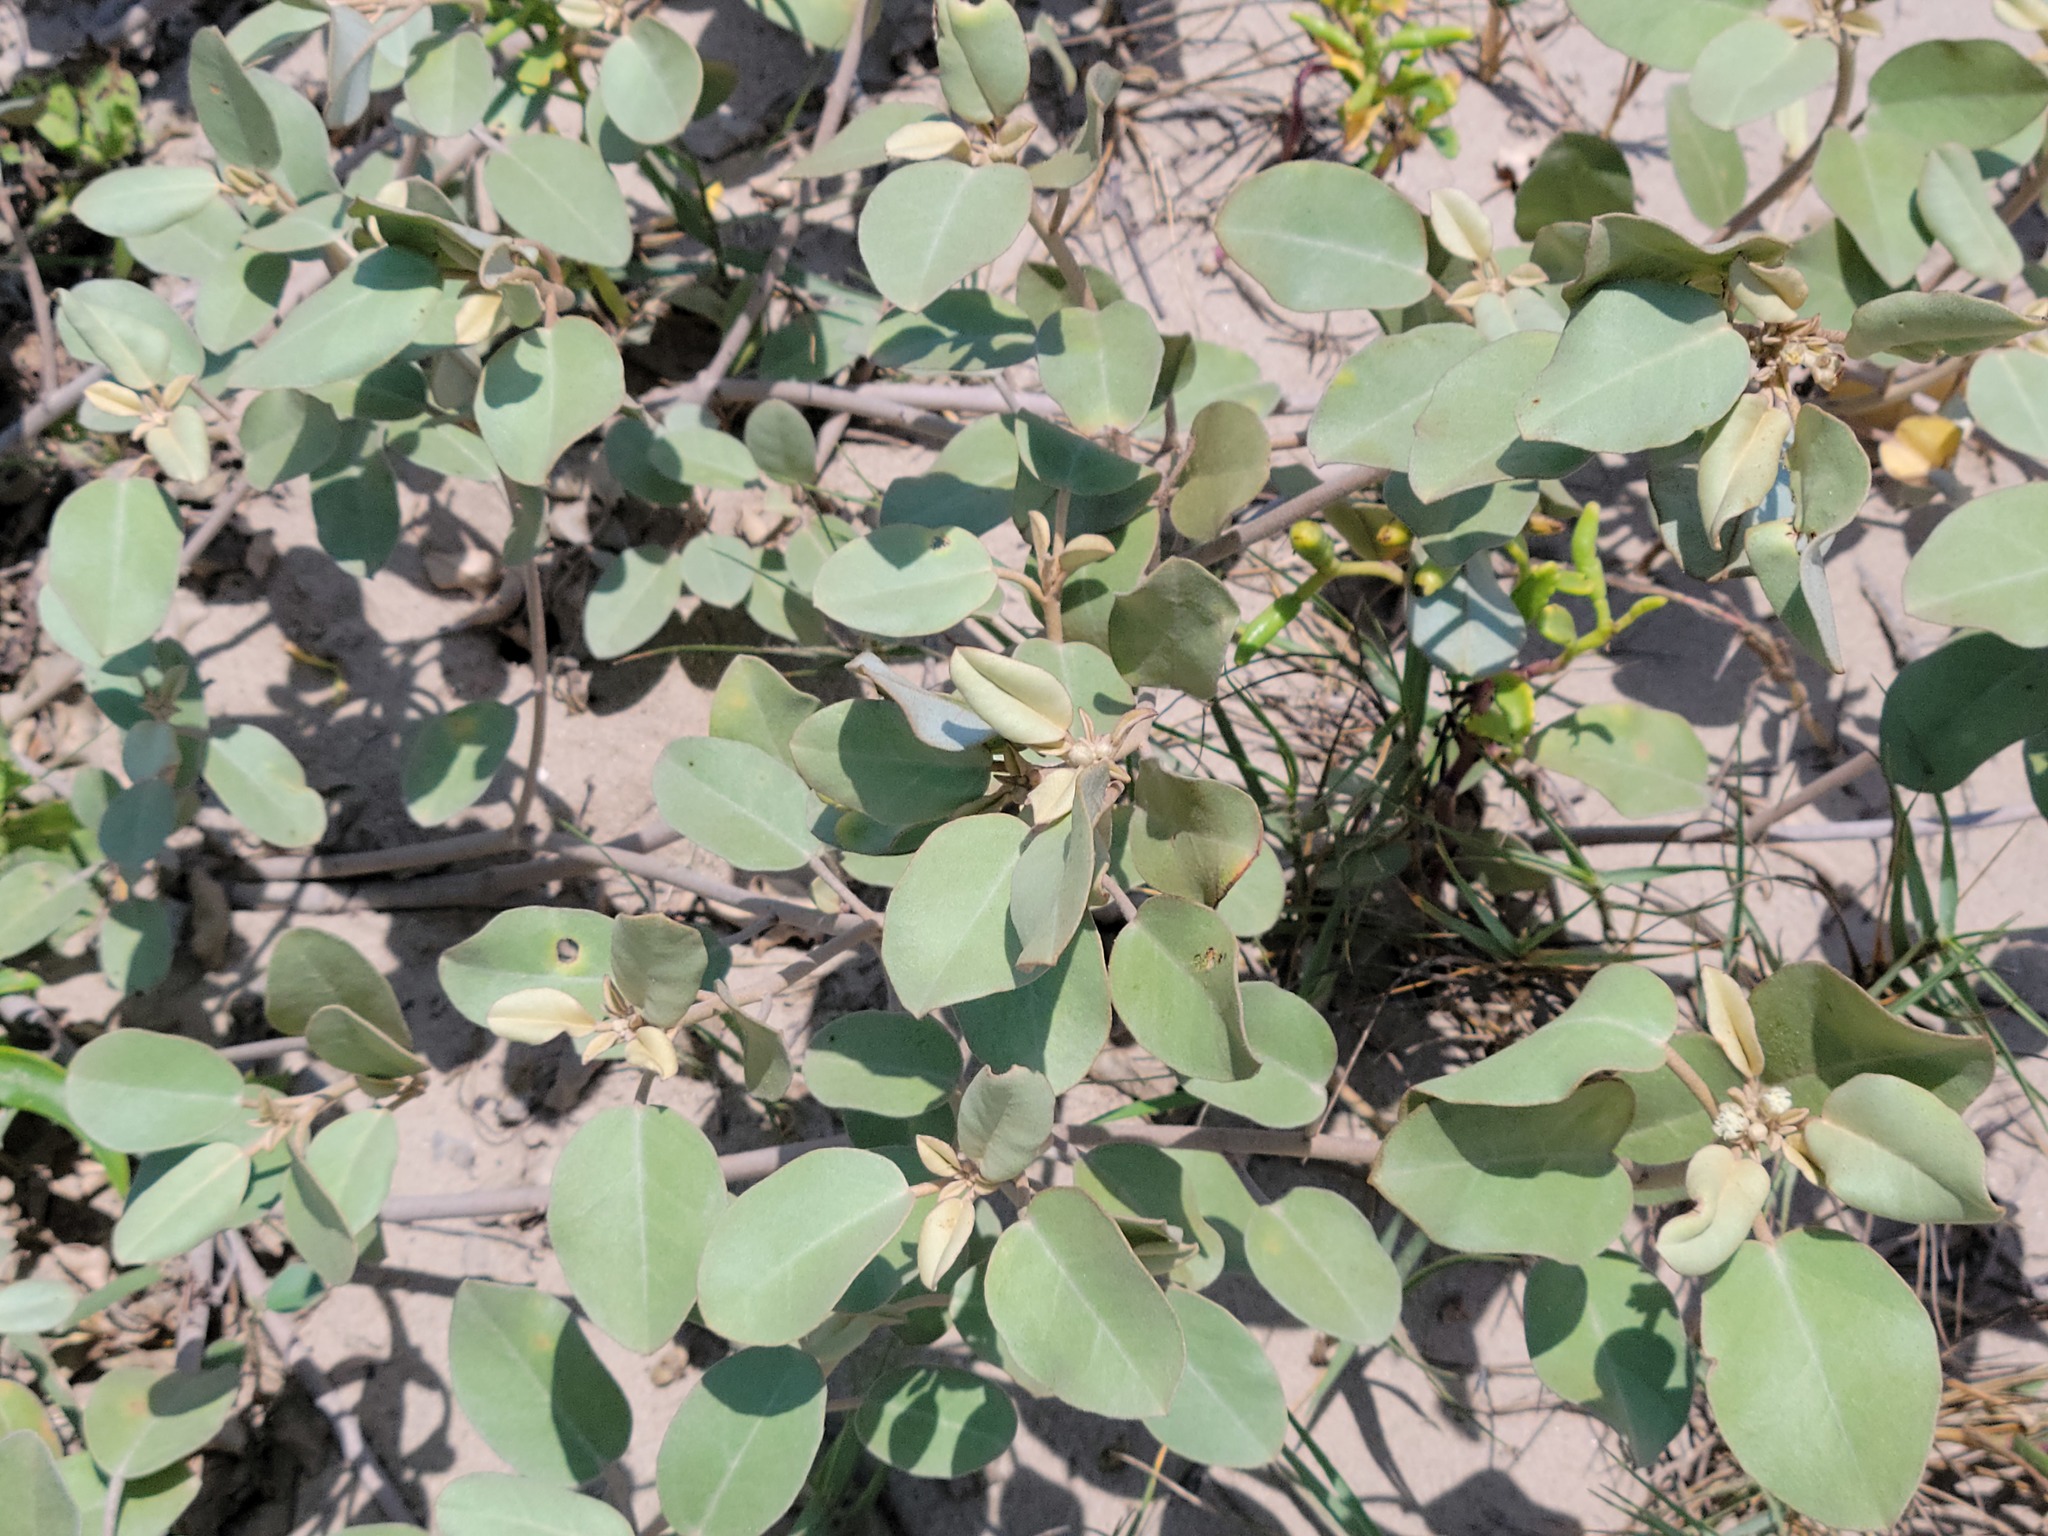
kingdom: Plantae
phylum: Tracheophyta
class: Magnoliopsida
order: Malpighiales
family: Euphorbiaceae
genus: Croton
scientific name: Croton punctatus
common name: Beach-tea
